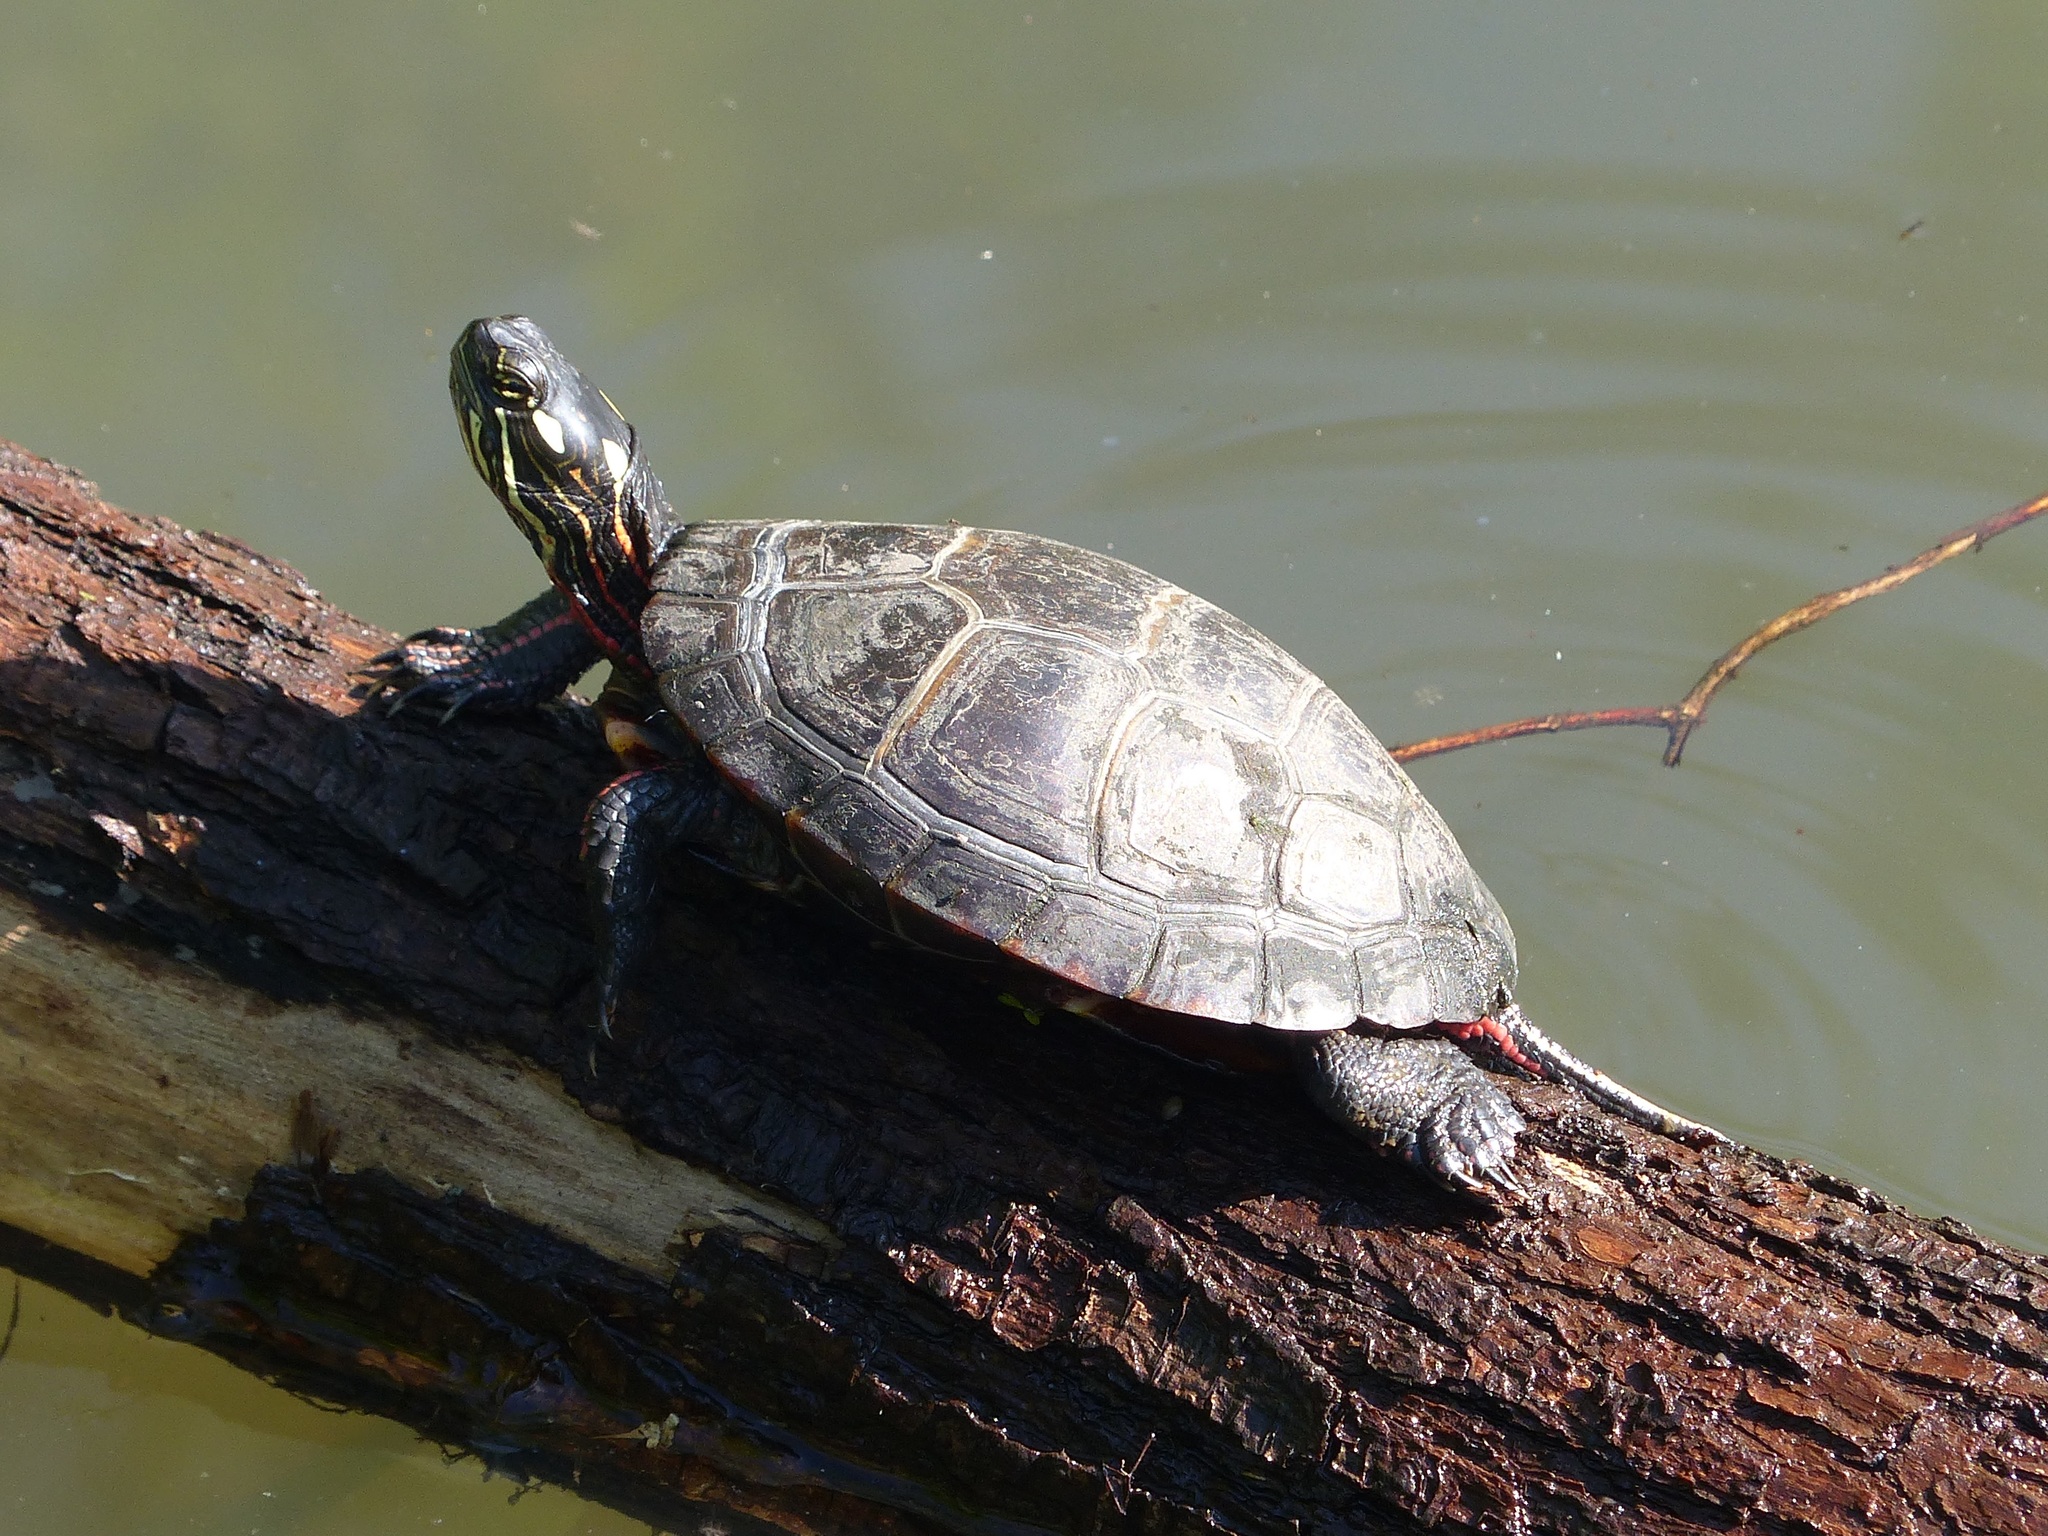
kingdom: Animalia
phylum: Chordata
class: Testudines
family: Emydidae
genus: Chrysemys
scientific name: Chrysemys picta
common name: Painted turtle
